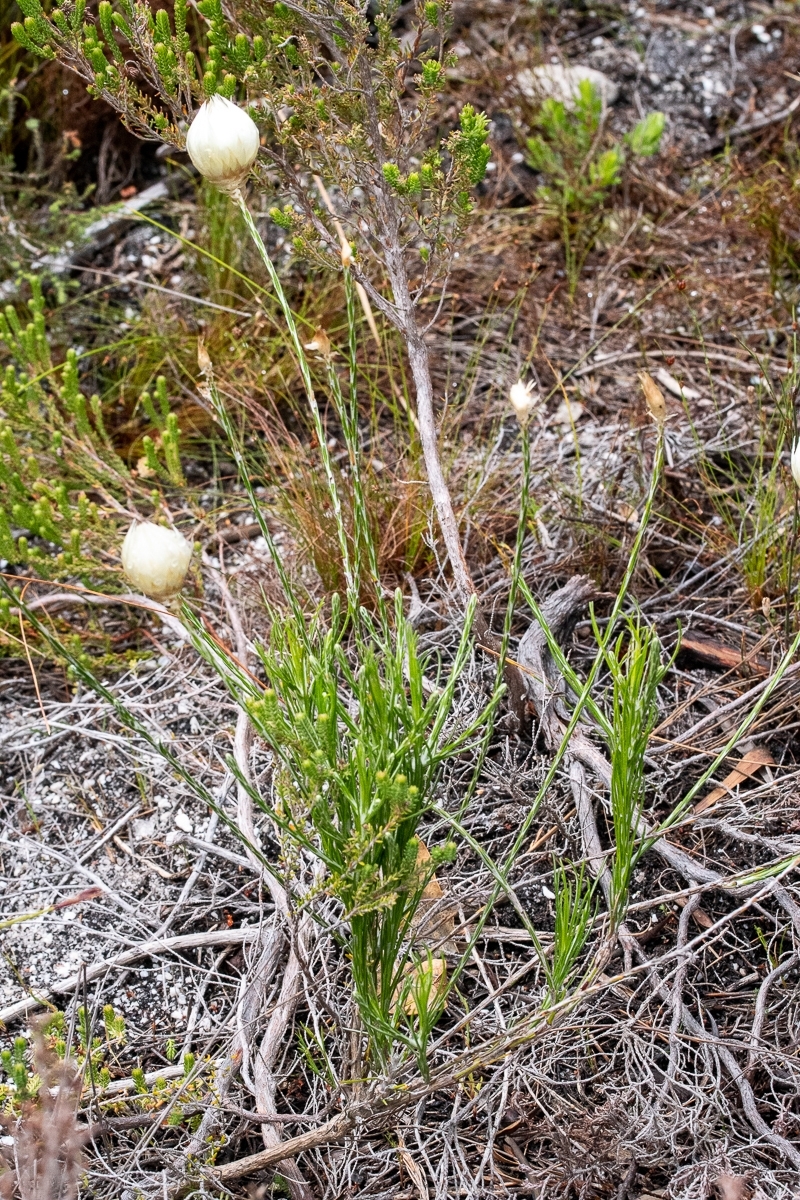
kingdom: Plantae
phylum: Tracheophyta
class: Magnoliopsida
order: Asterales
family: Asteraceae
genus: Edmondia
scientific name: Edmondia sesamoides
